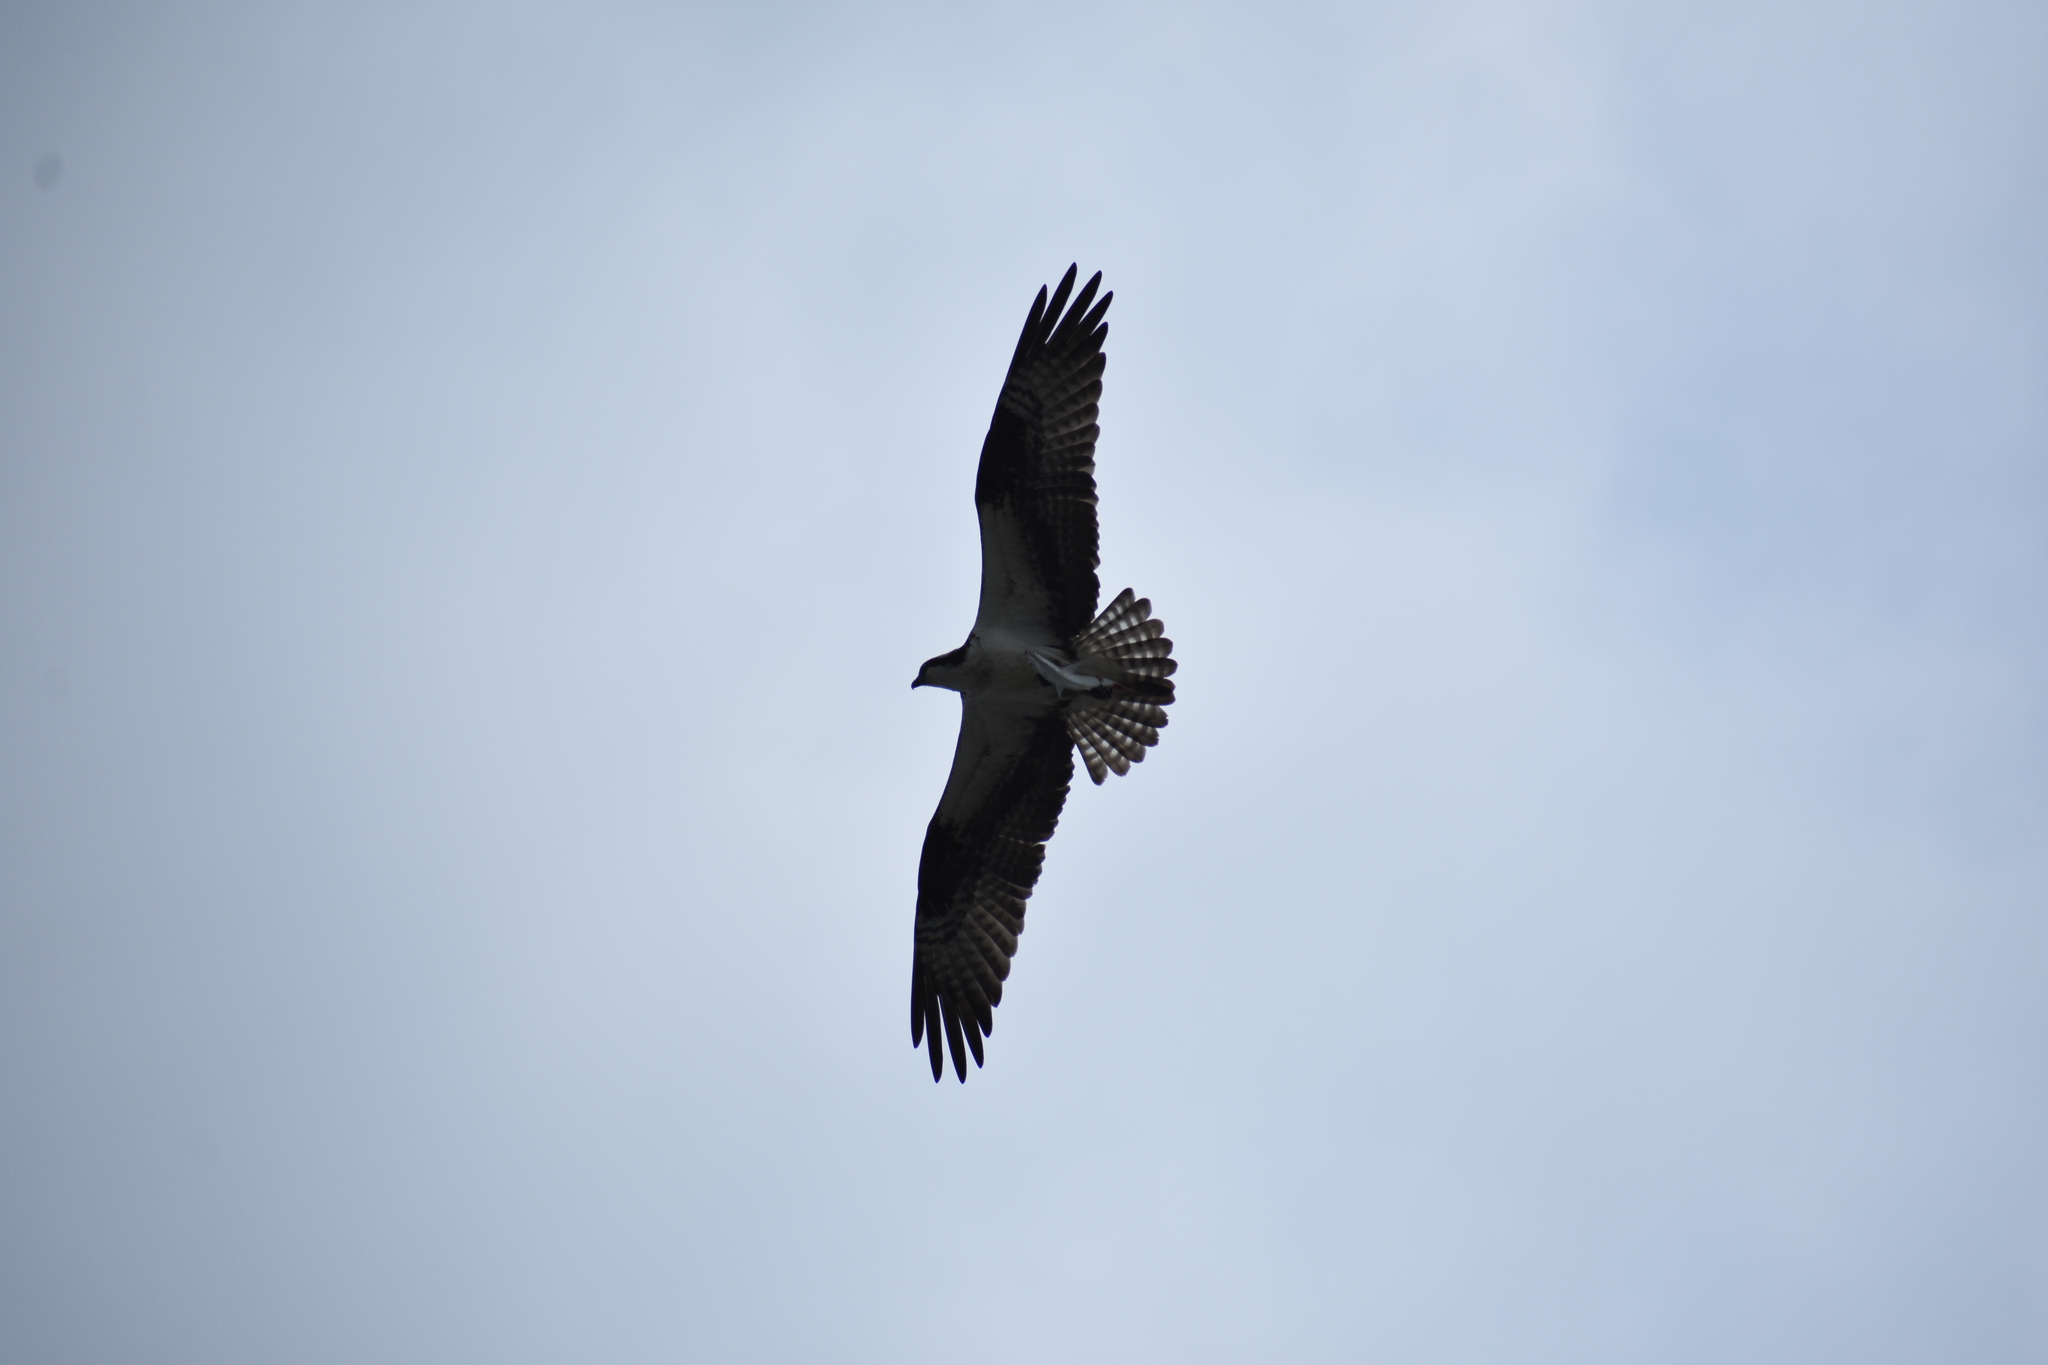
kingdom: Animalia
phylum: Chordata
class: Aves
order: Accipitriformes
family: Pandionidae
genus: Pandion
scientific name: Pandion haliaetus
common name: Osprey
